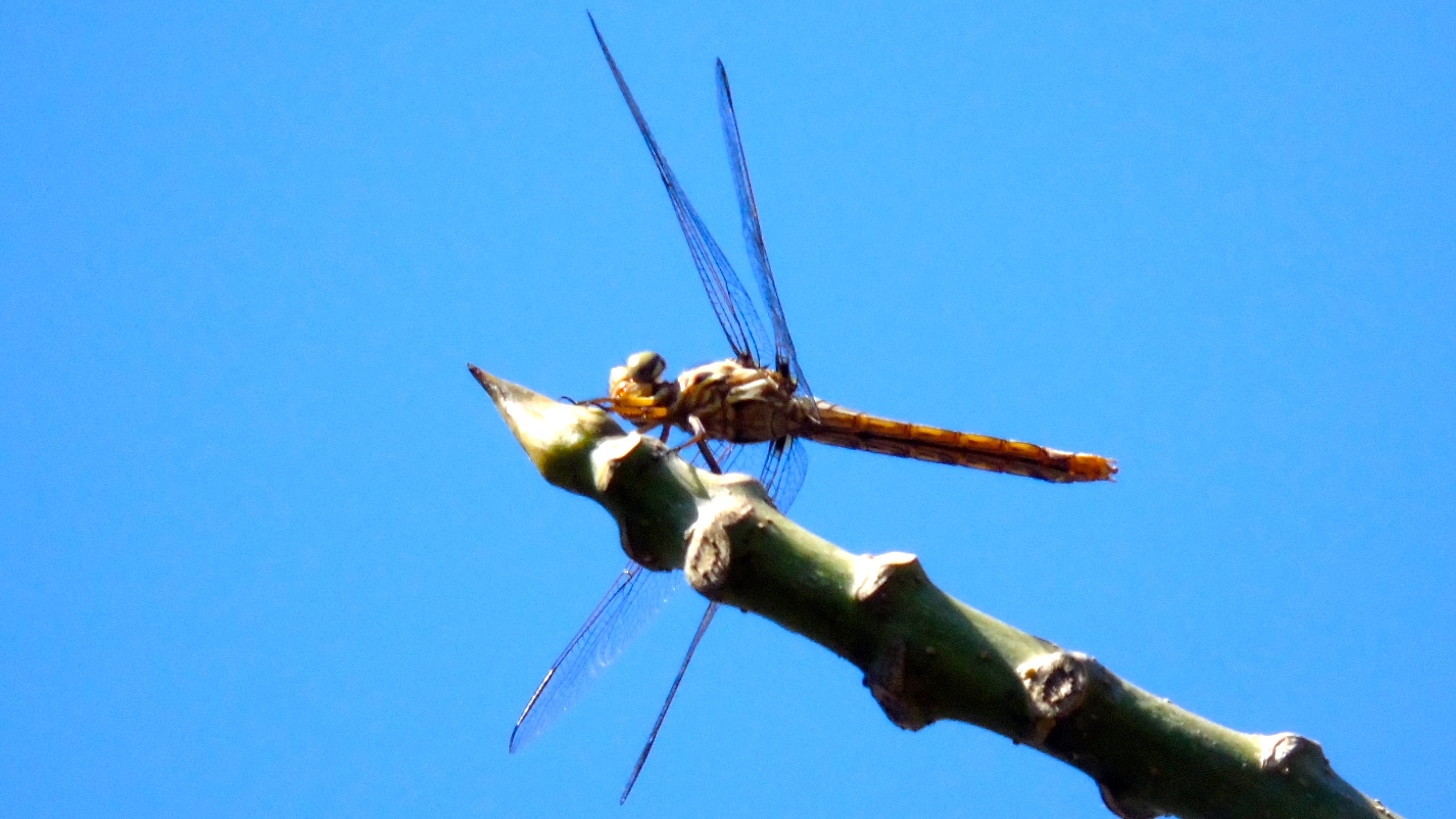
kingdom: Animalia
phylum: Arthropoda
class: Insecta
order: Odonata
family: Libellulidae
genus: Orthemis
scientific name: Orthemis
